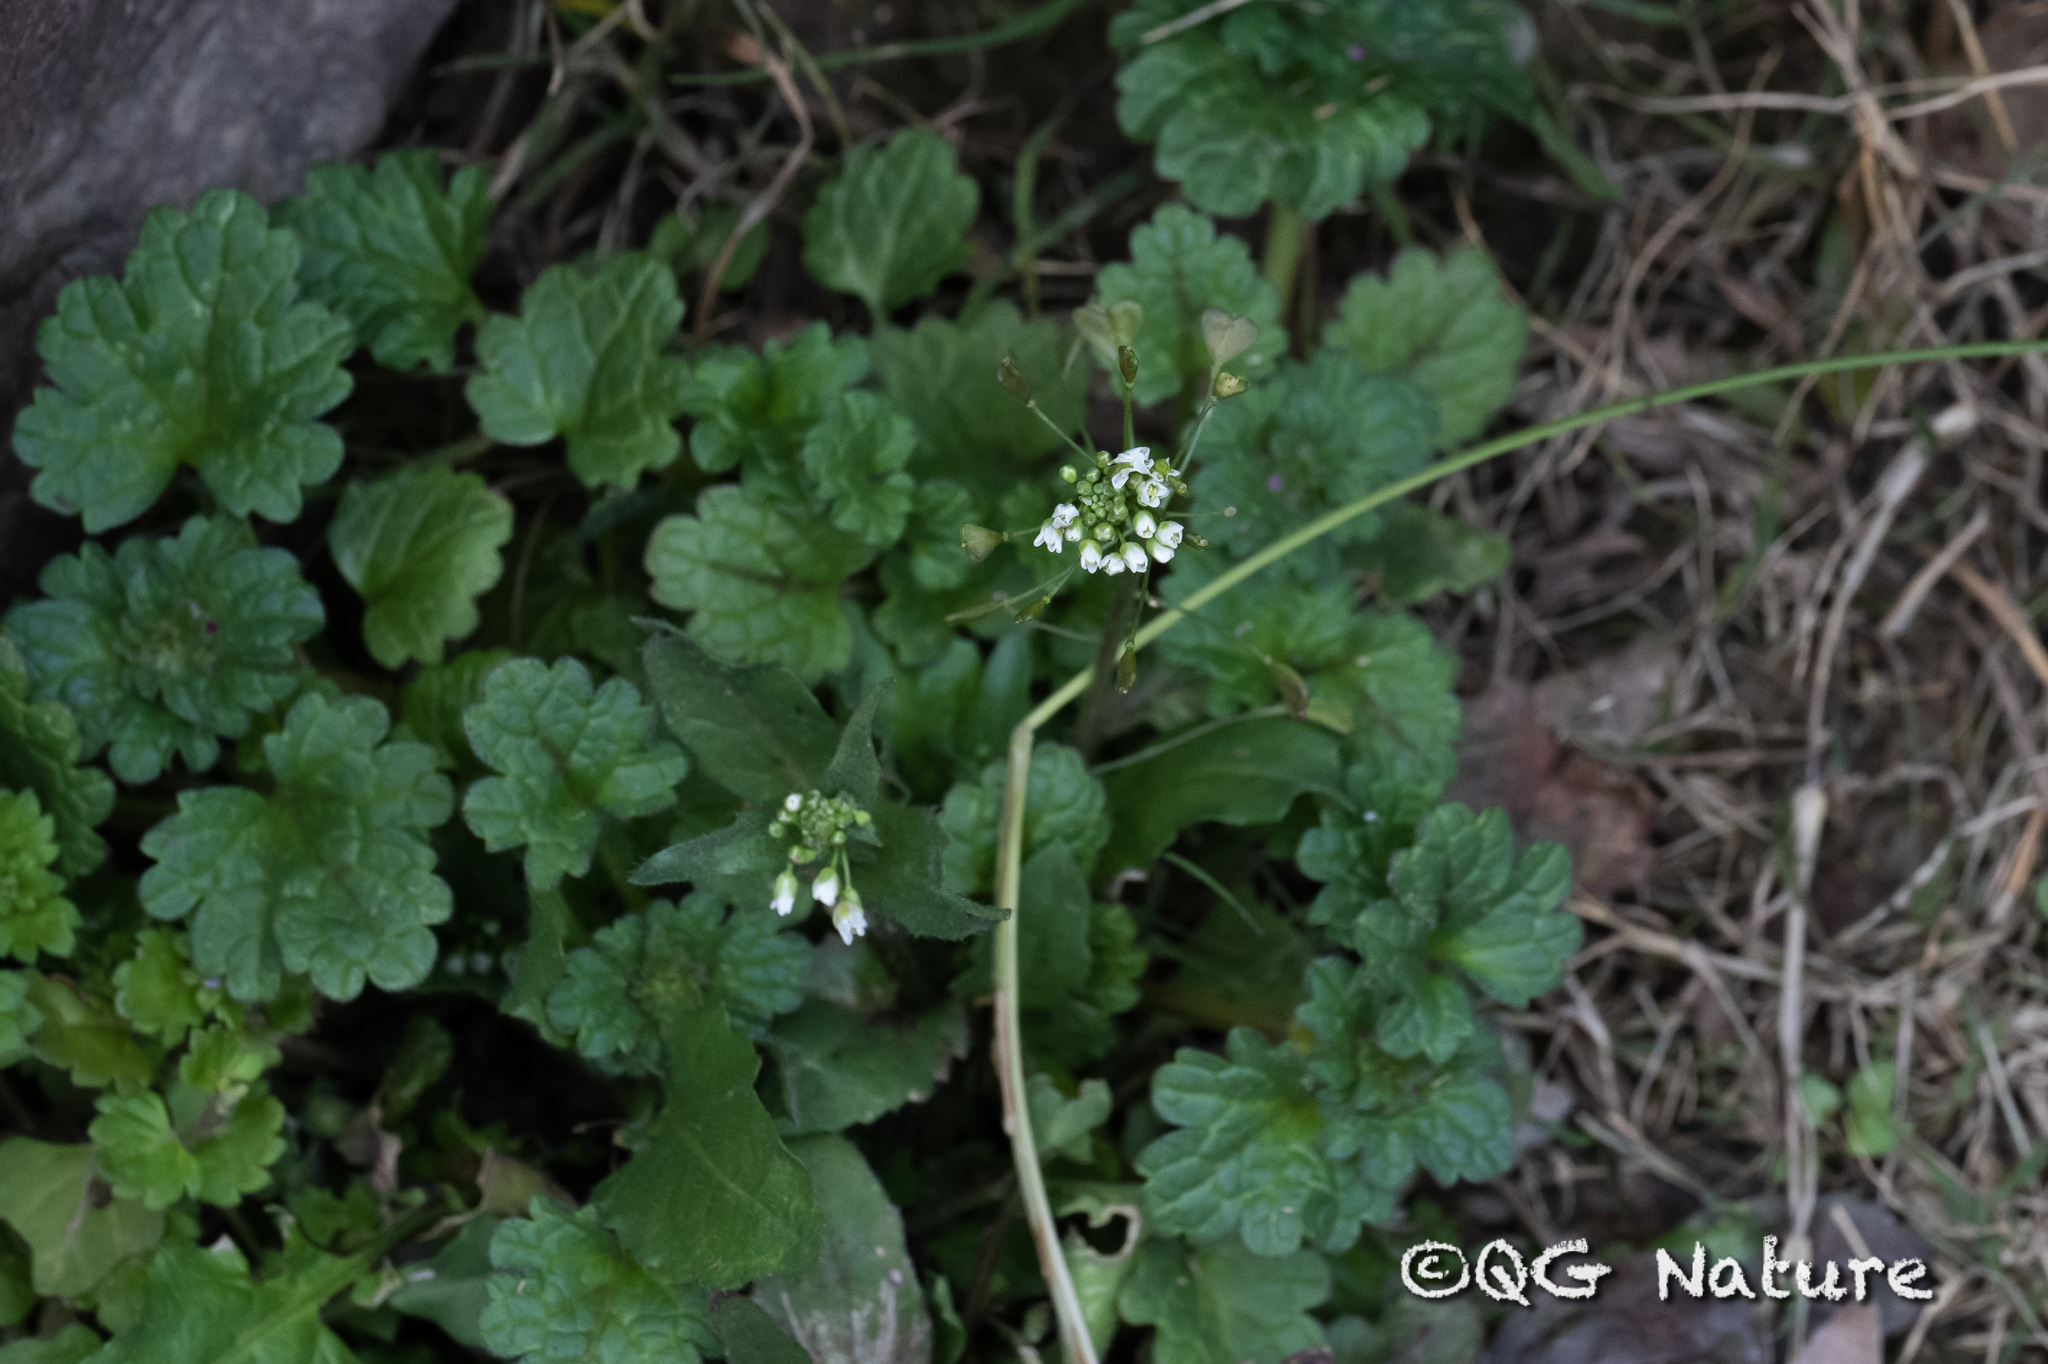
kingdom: Plantae
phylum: Tracheophyta
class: Magnoliopsida
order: Brassicales
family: Brassicaceae
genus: Capsella
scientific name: Capsella bursa-pastoris
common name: Shepherd's purse
